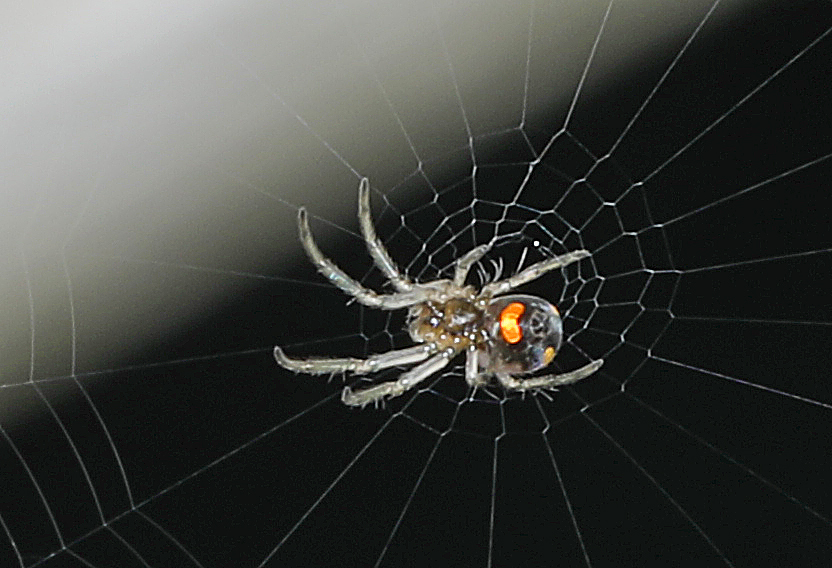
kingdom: Animalia
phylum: Arthropoda
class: Arachnida
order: Araneae
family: Tetragnathidae
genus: Leucauge
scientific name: Leucauge venusta
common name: Longjawed orb weavers
